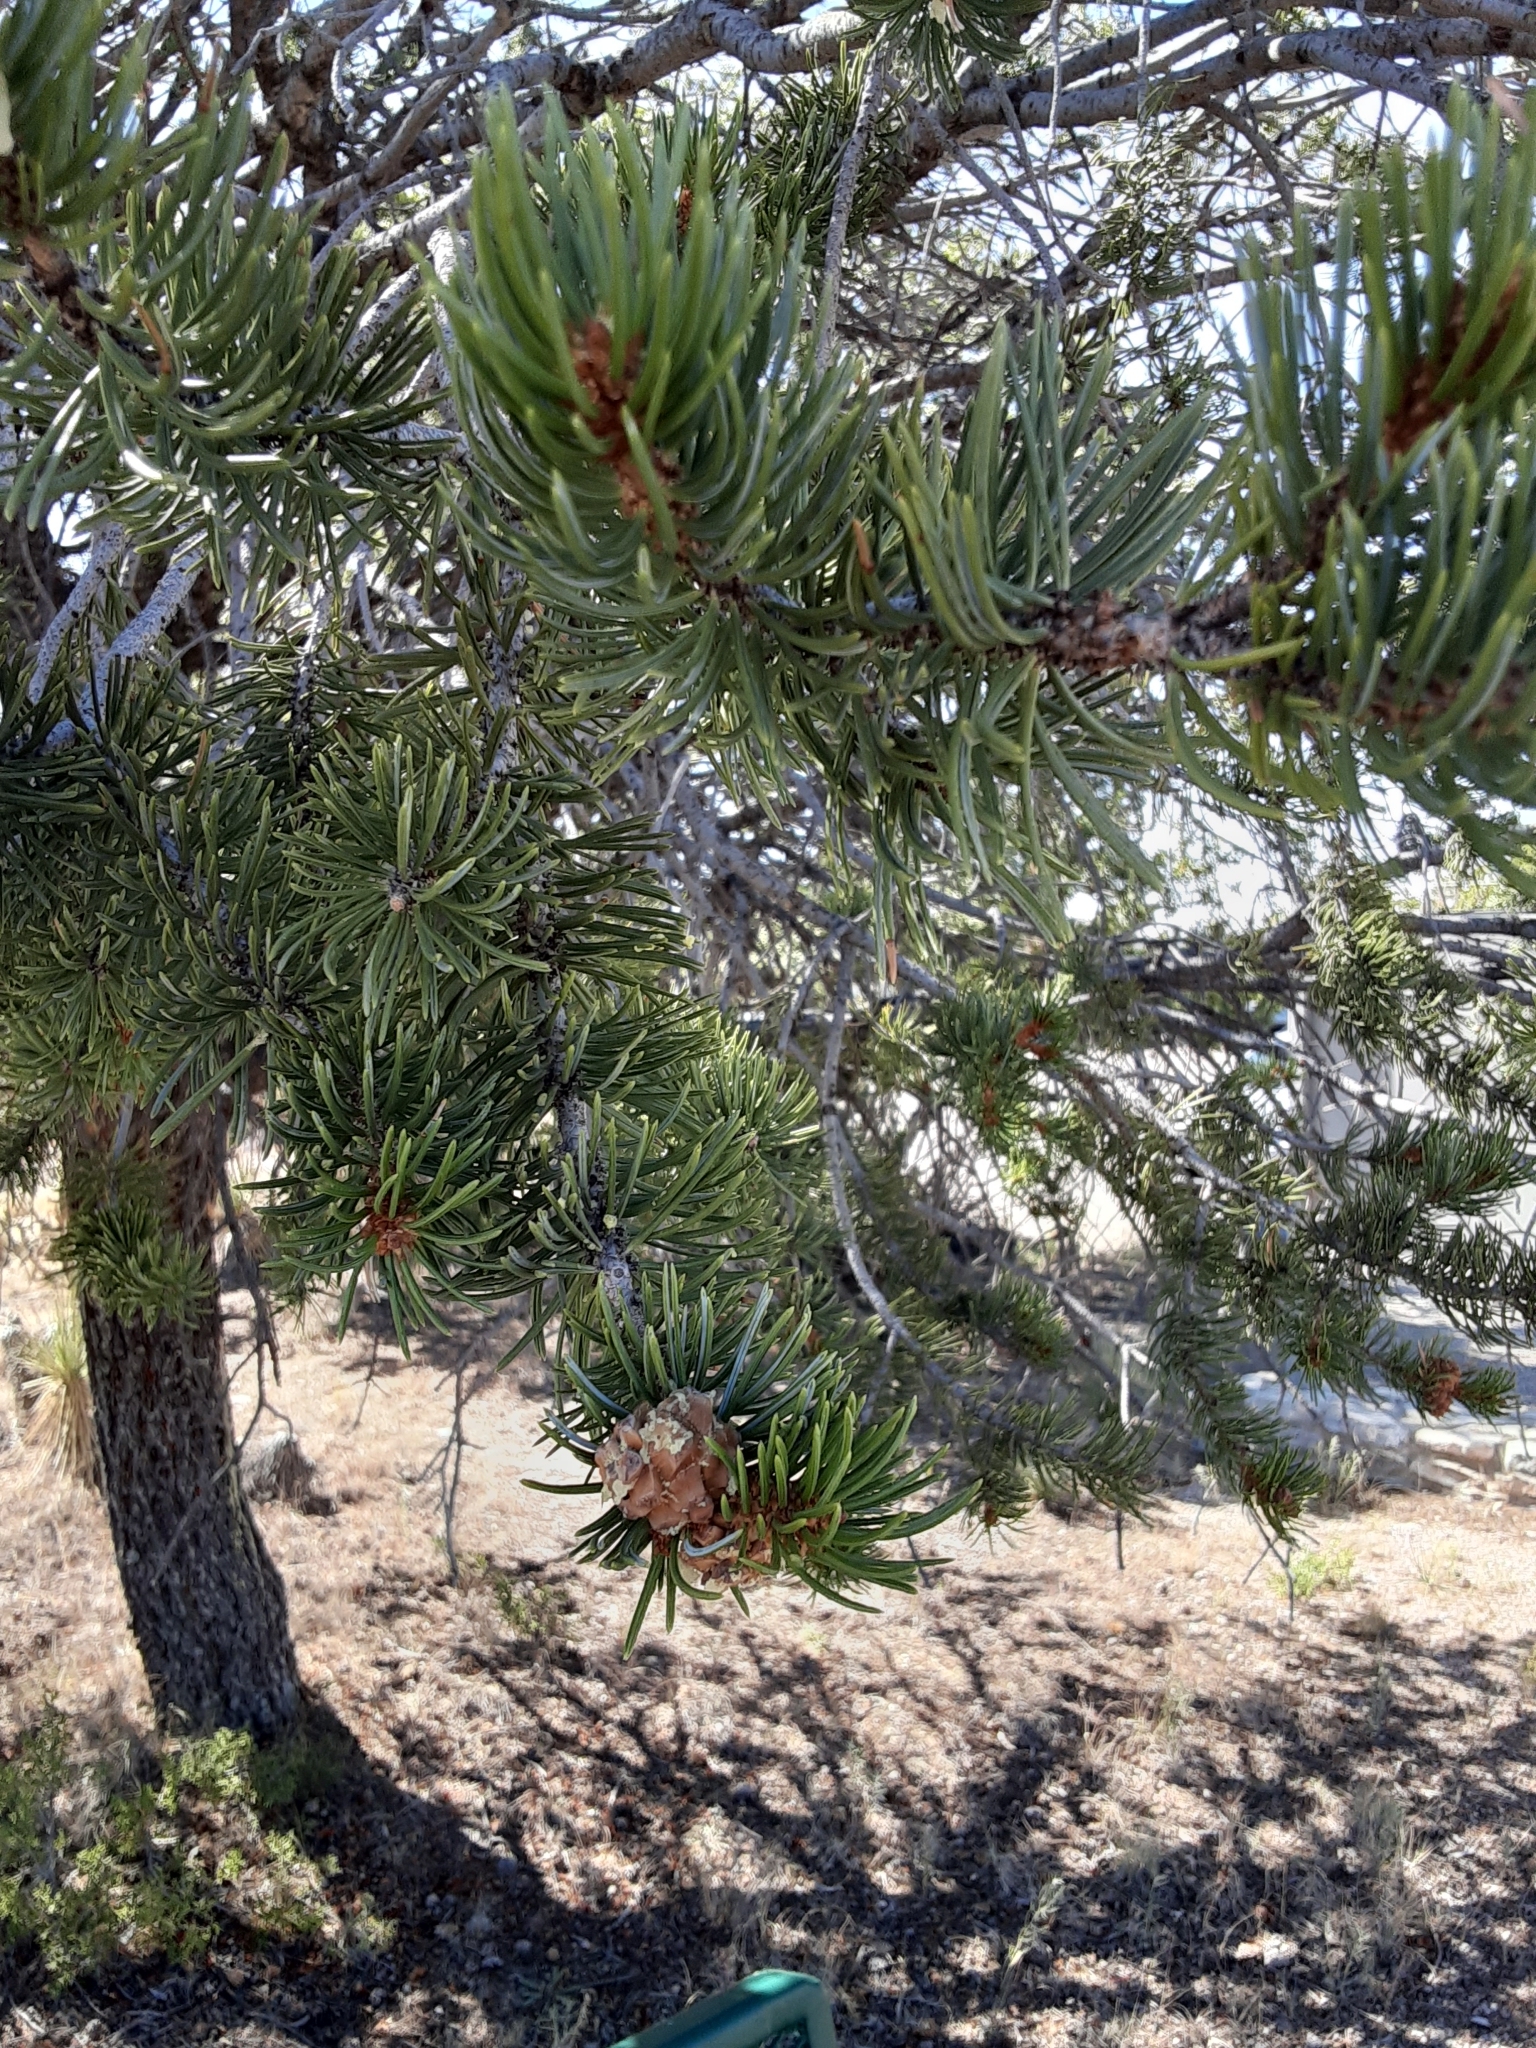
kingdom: Plantae
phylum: Tracheophyta
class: Pinopsida
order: Pinales
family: Pinaceae
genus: Pinus
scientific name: Pinus edulis
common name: Colorado pinyon
